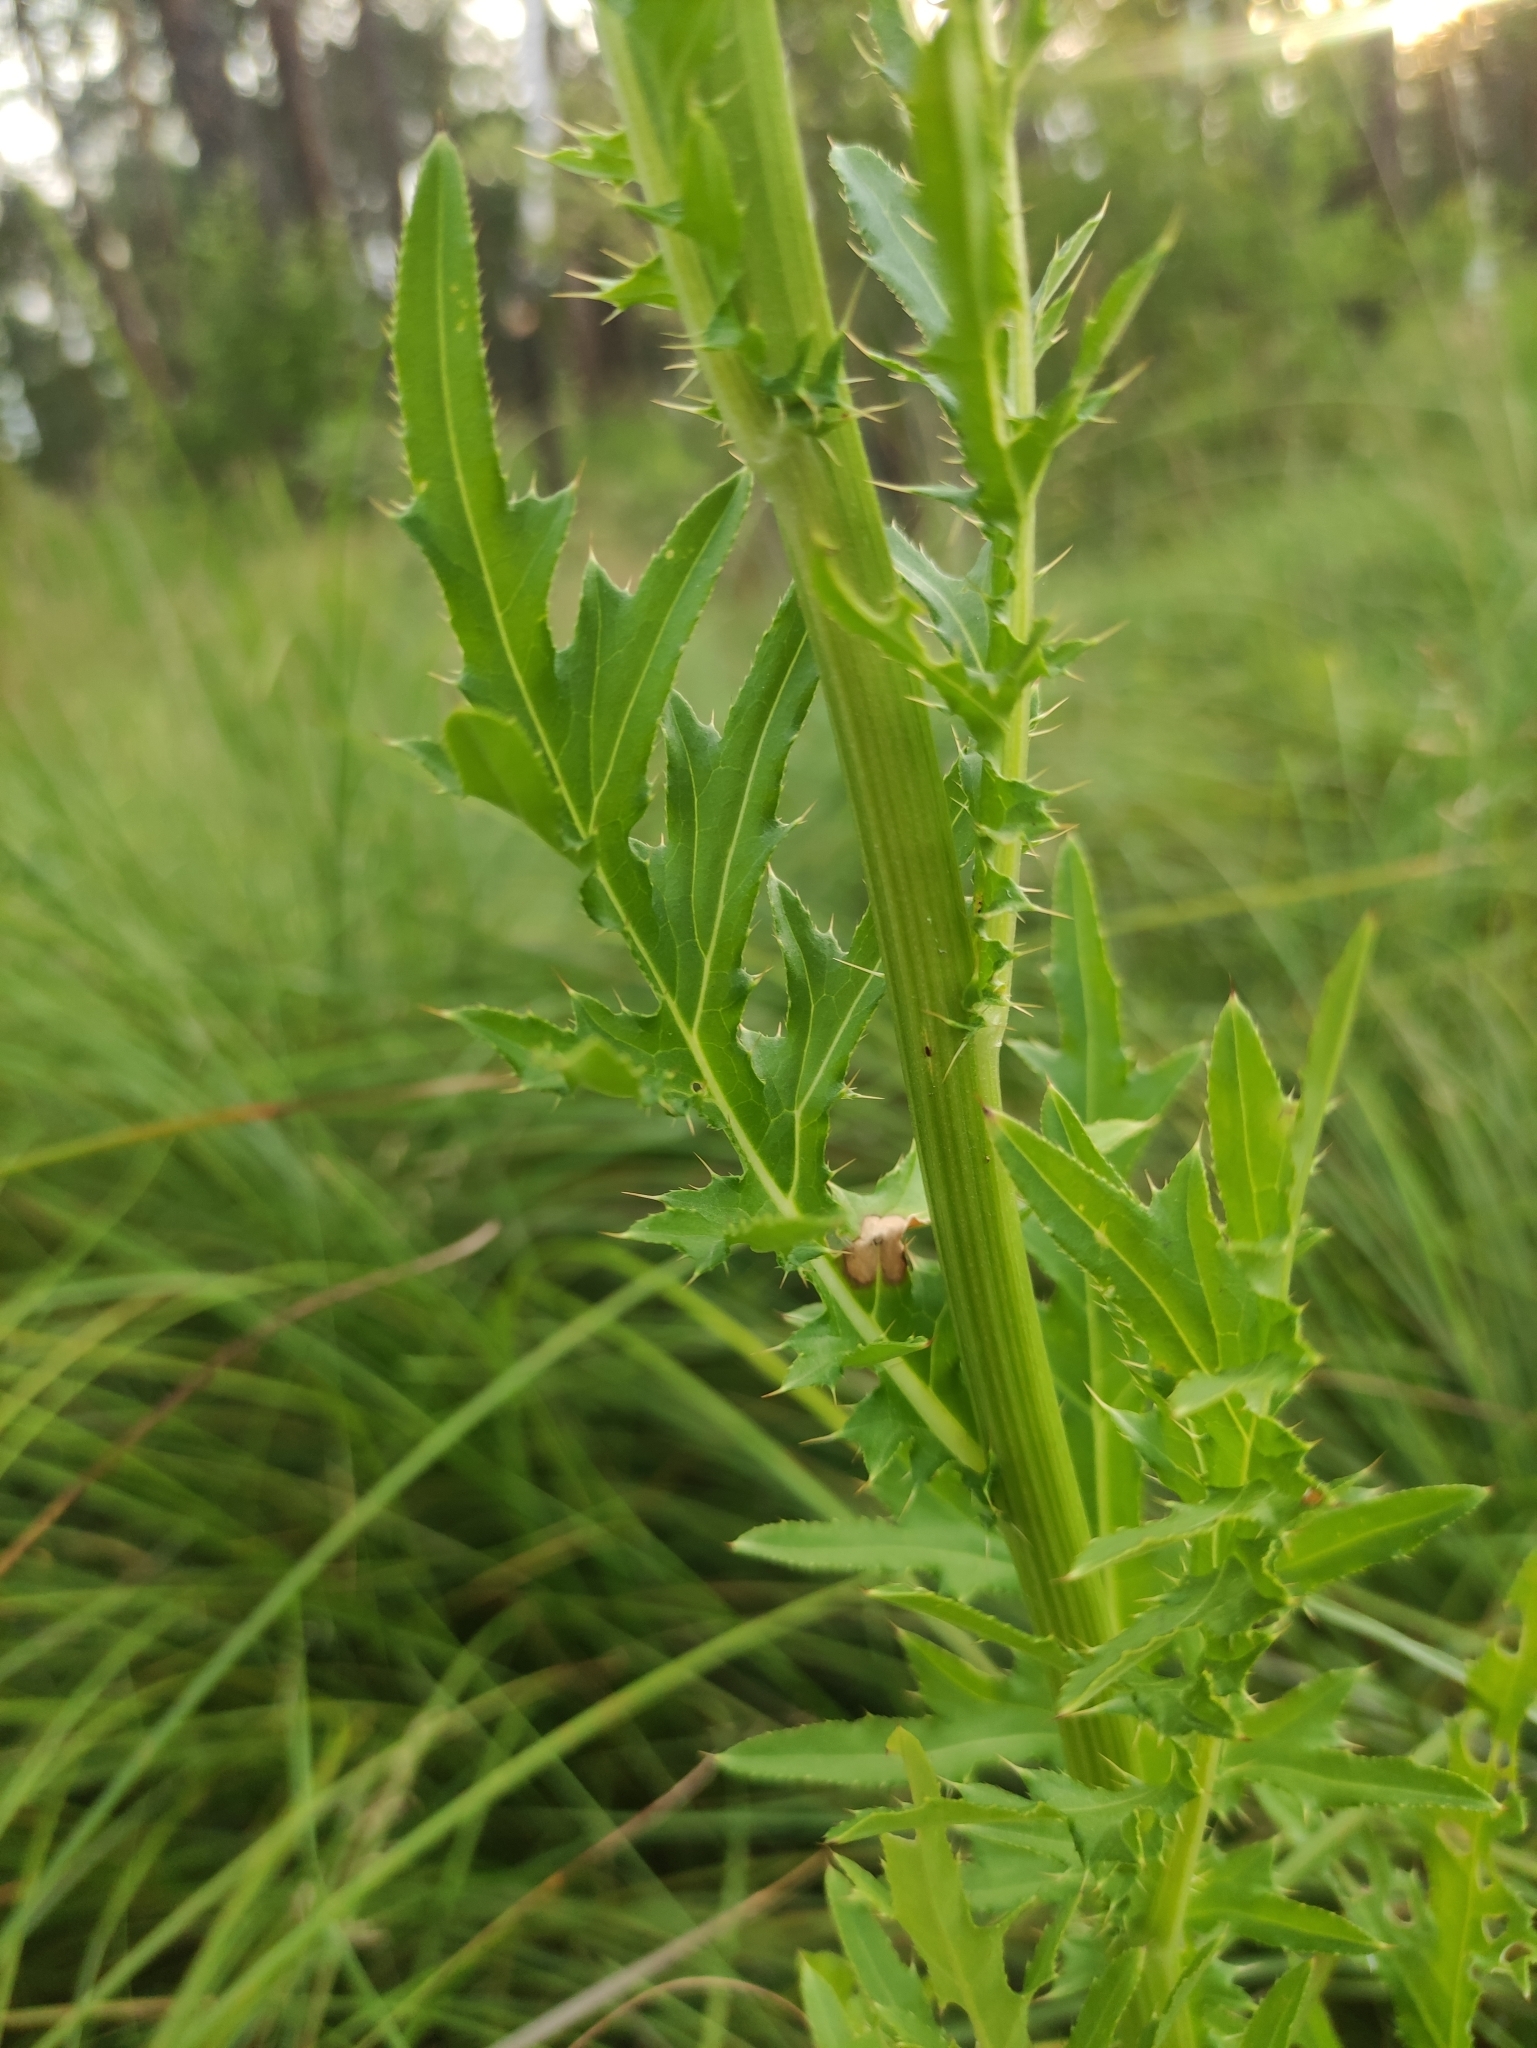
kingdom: Plantae
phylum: Tracheophyta
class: Magnoliopsida
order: Asterales
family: Asteraceae
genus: Cirsium
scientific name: Cirsium pendulum
